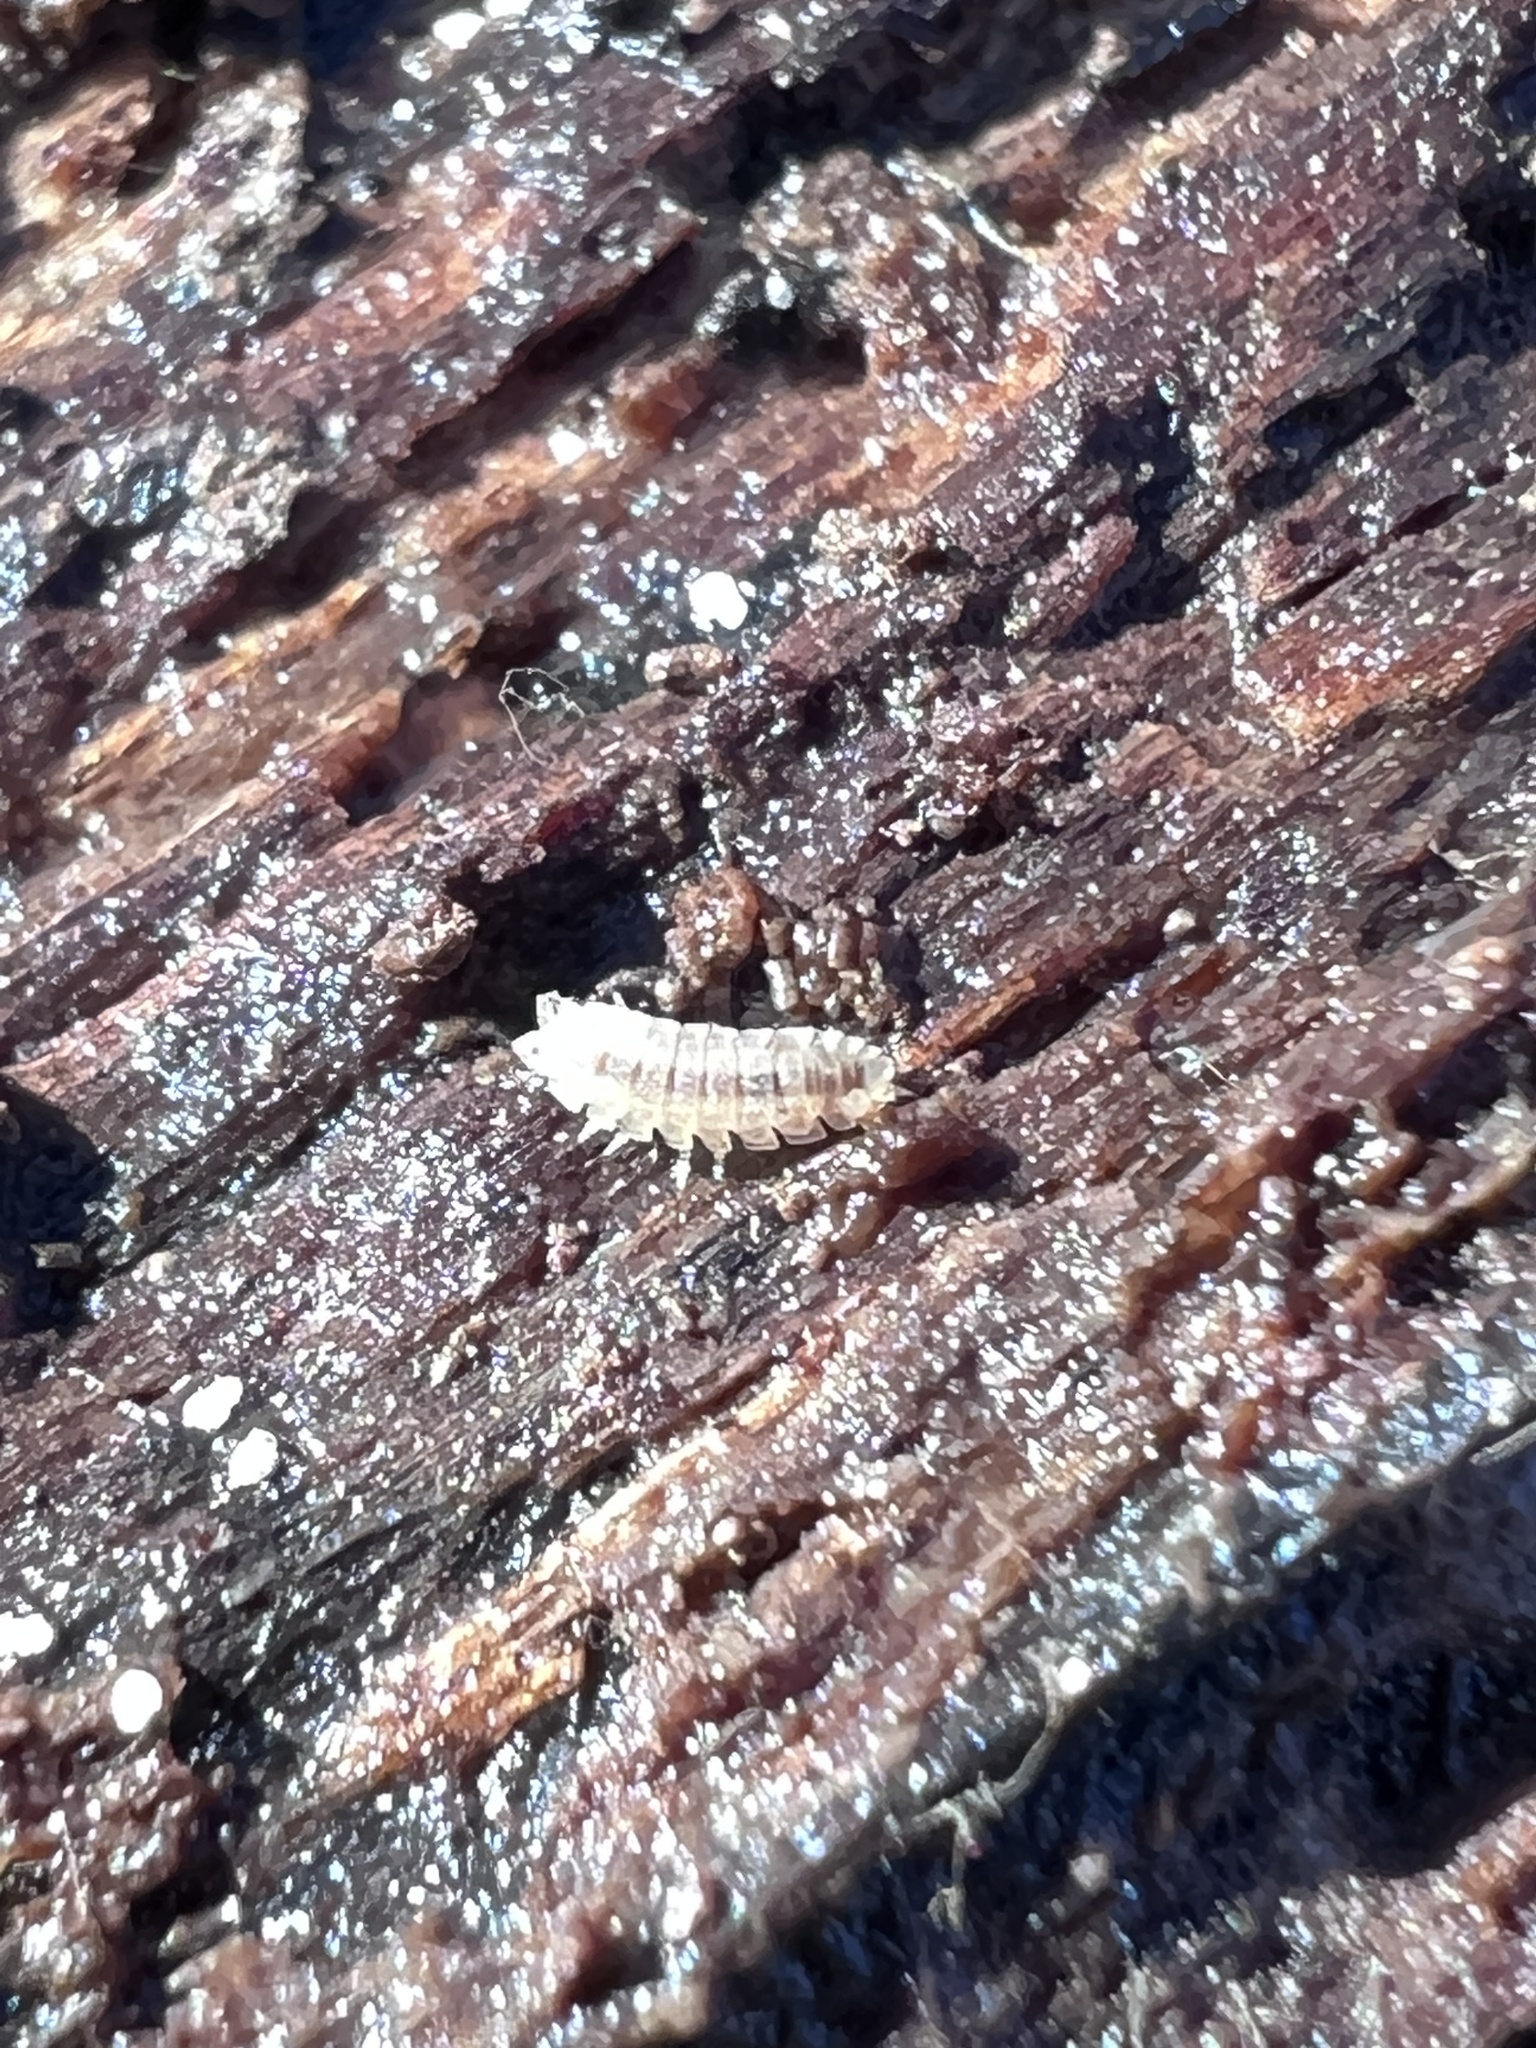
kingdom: Animalia
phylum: Arthropoda
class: Malacostraca
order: Isopoda
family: Trichoniscidae
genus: Haplophthalmus
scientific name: Haplophthalmus danicus
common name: Pillbug
